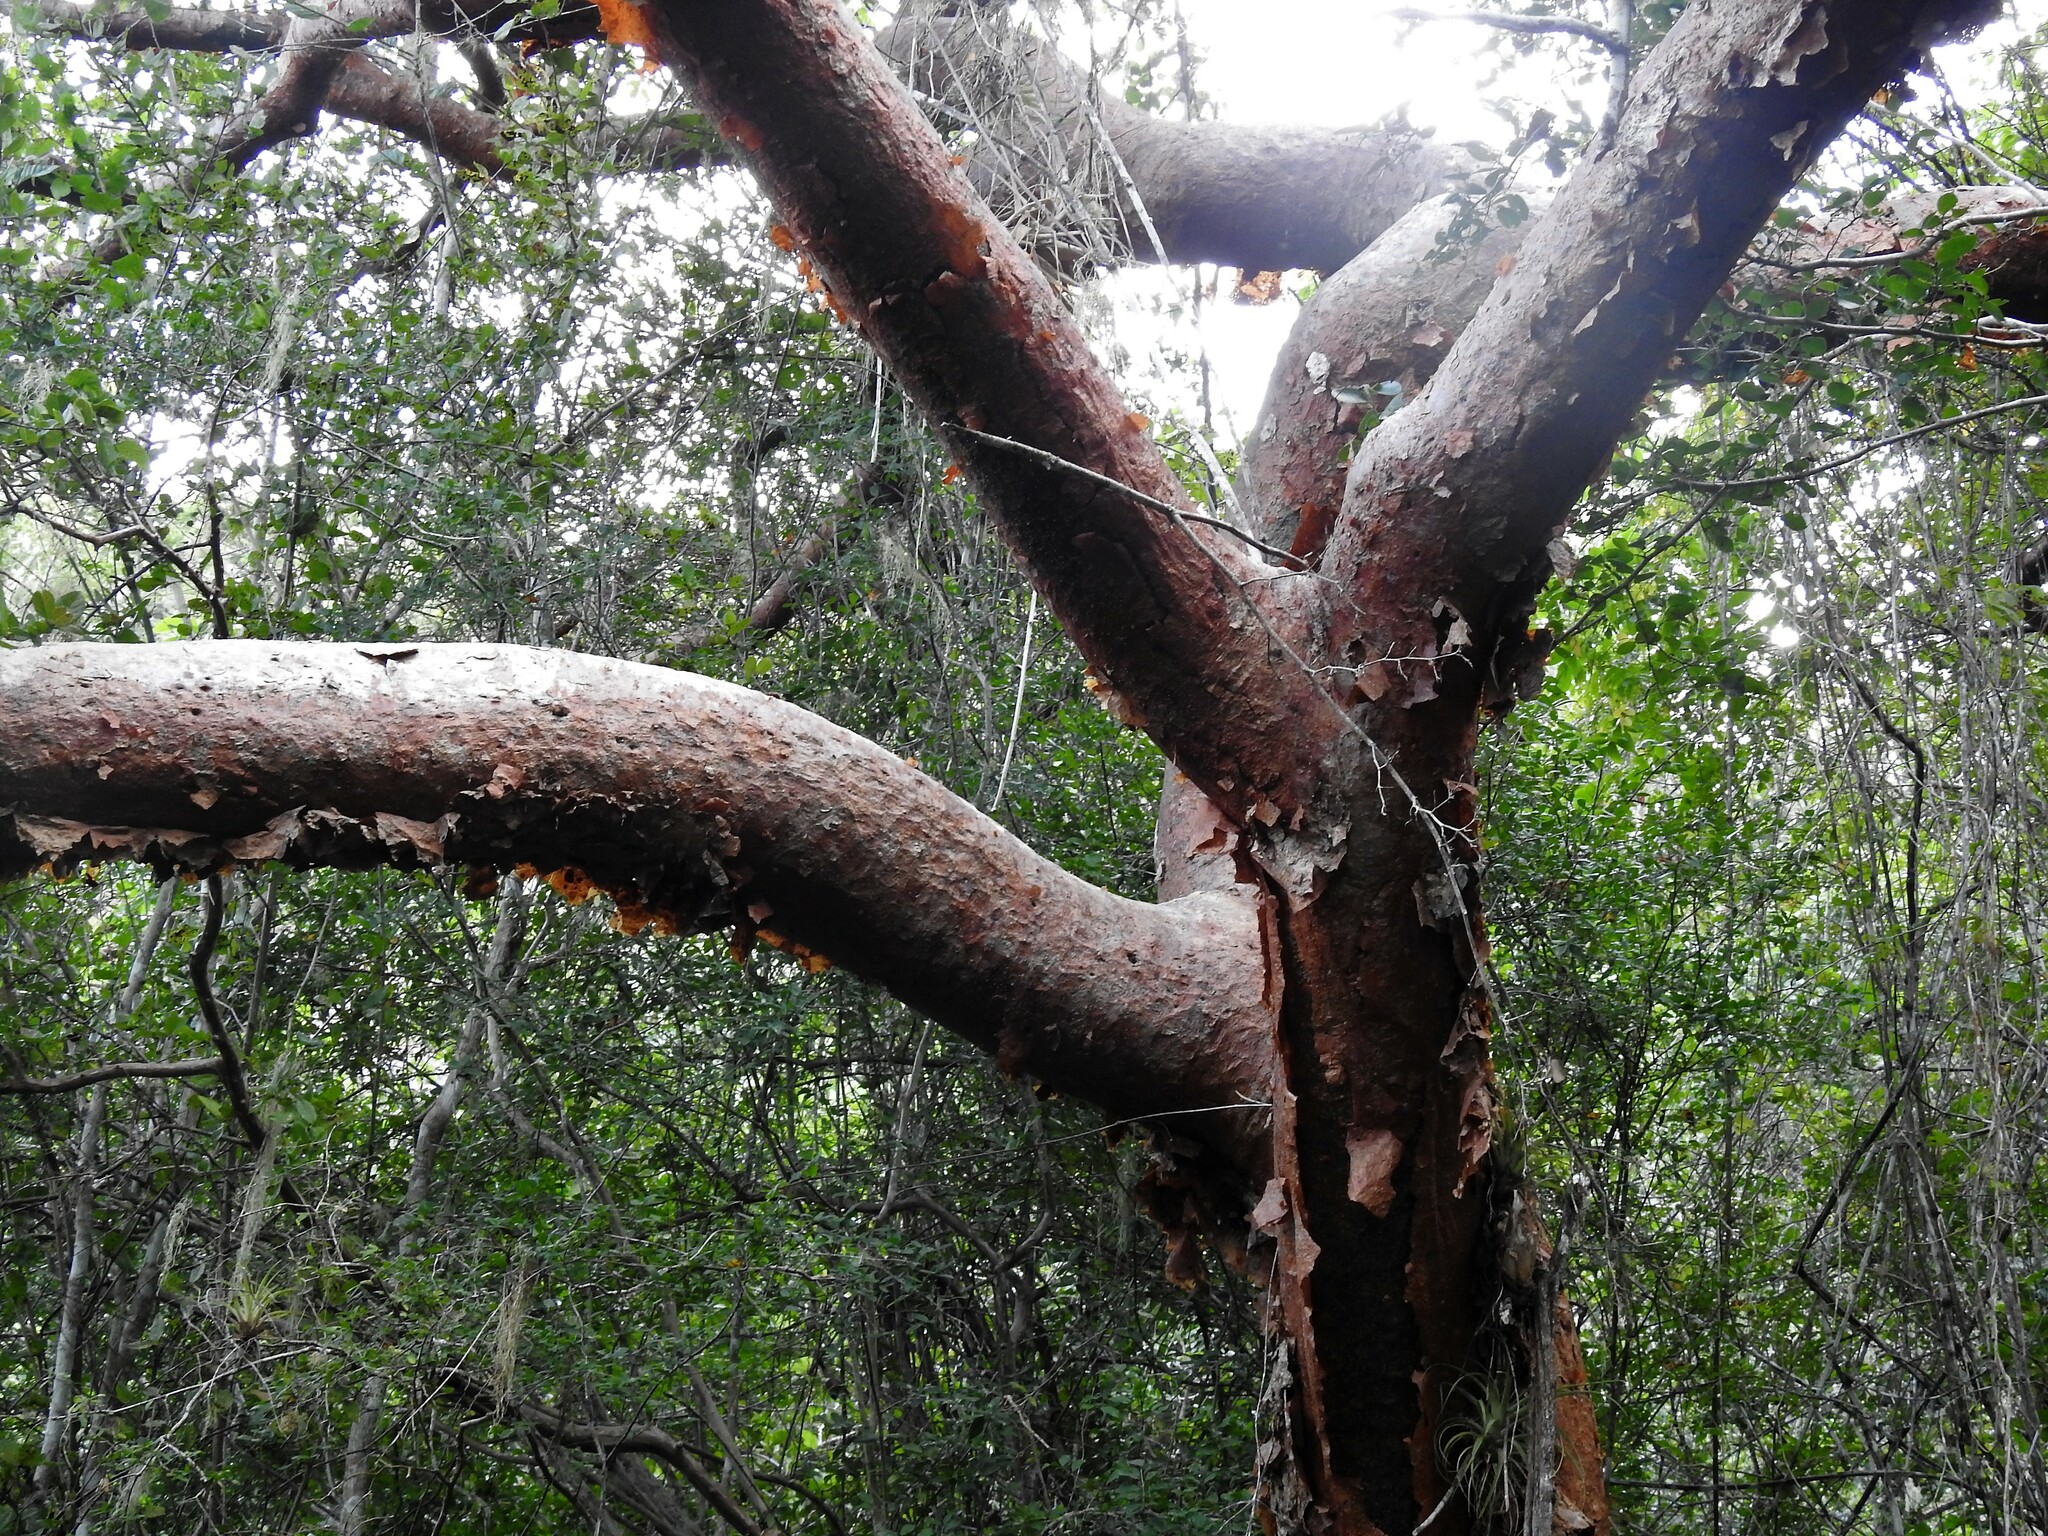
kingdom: Plantae
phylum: Tracheophyta
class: Magnoliopsida
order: Sapindales
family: Burseraceae
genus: Bursera
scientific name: Bursera simaruba
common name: Turpentine tree
